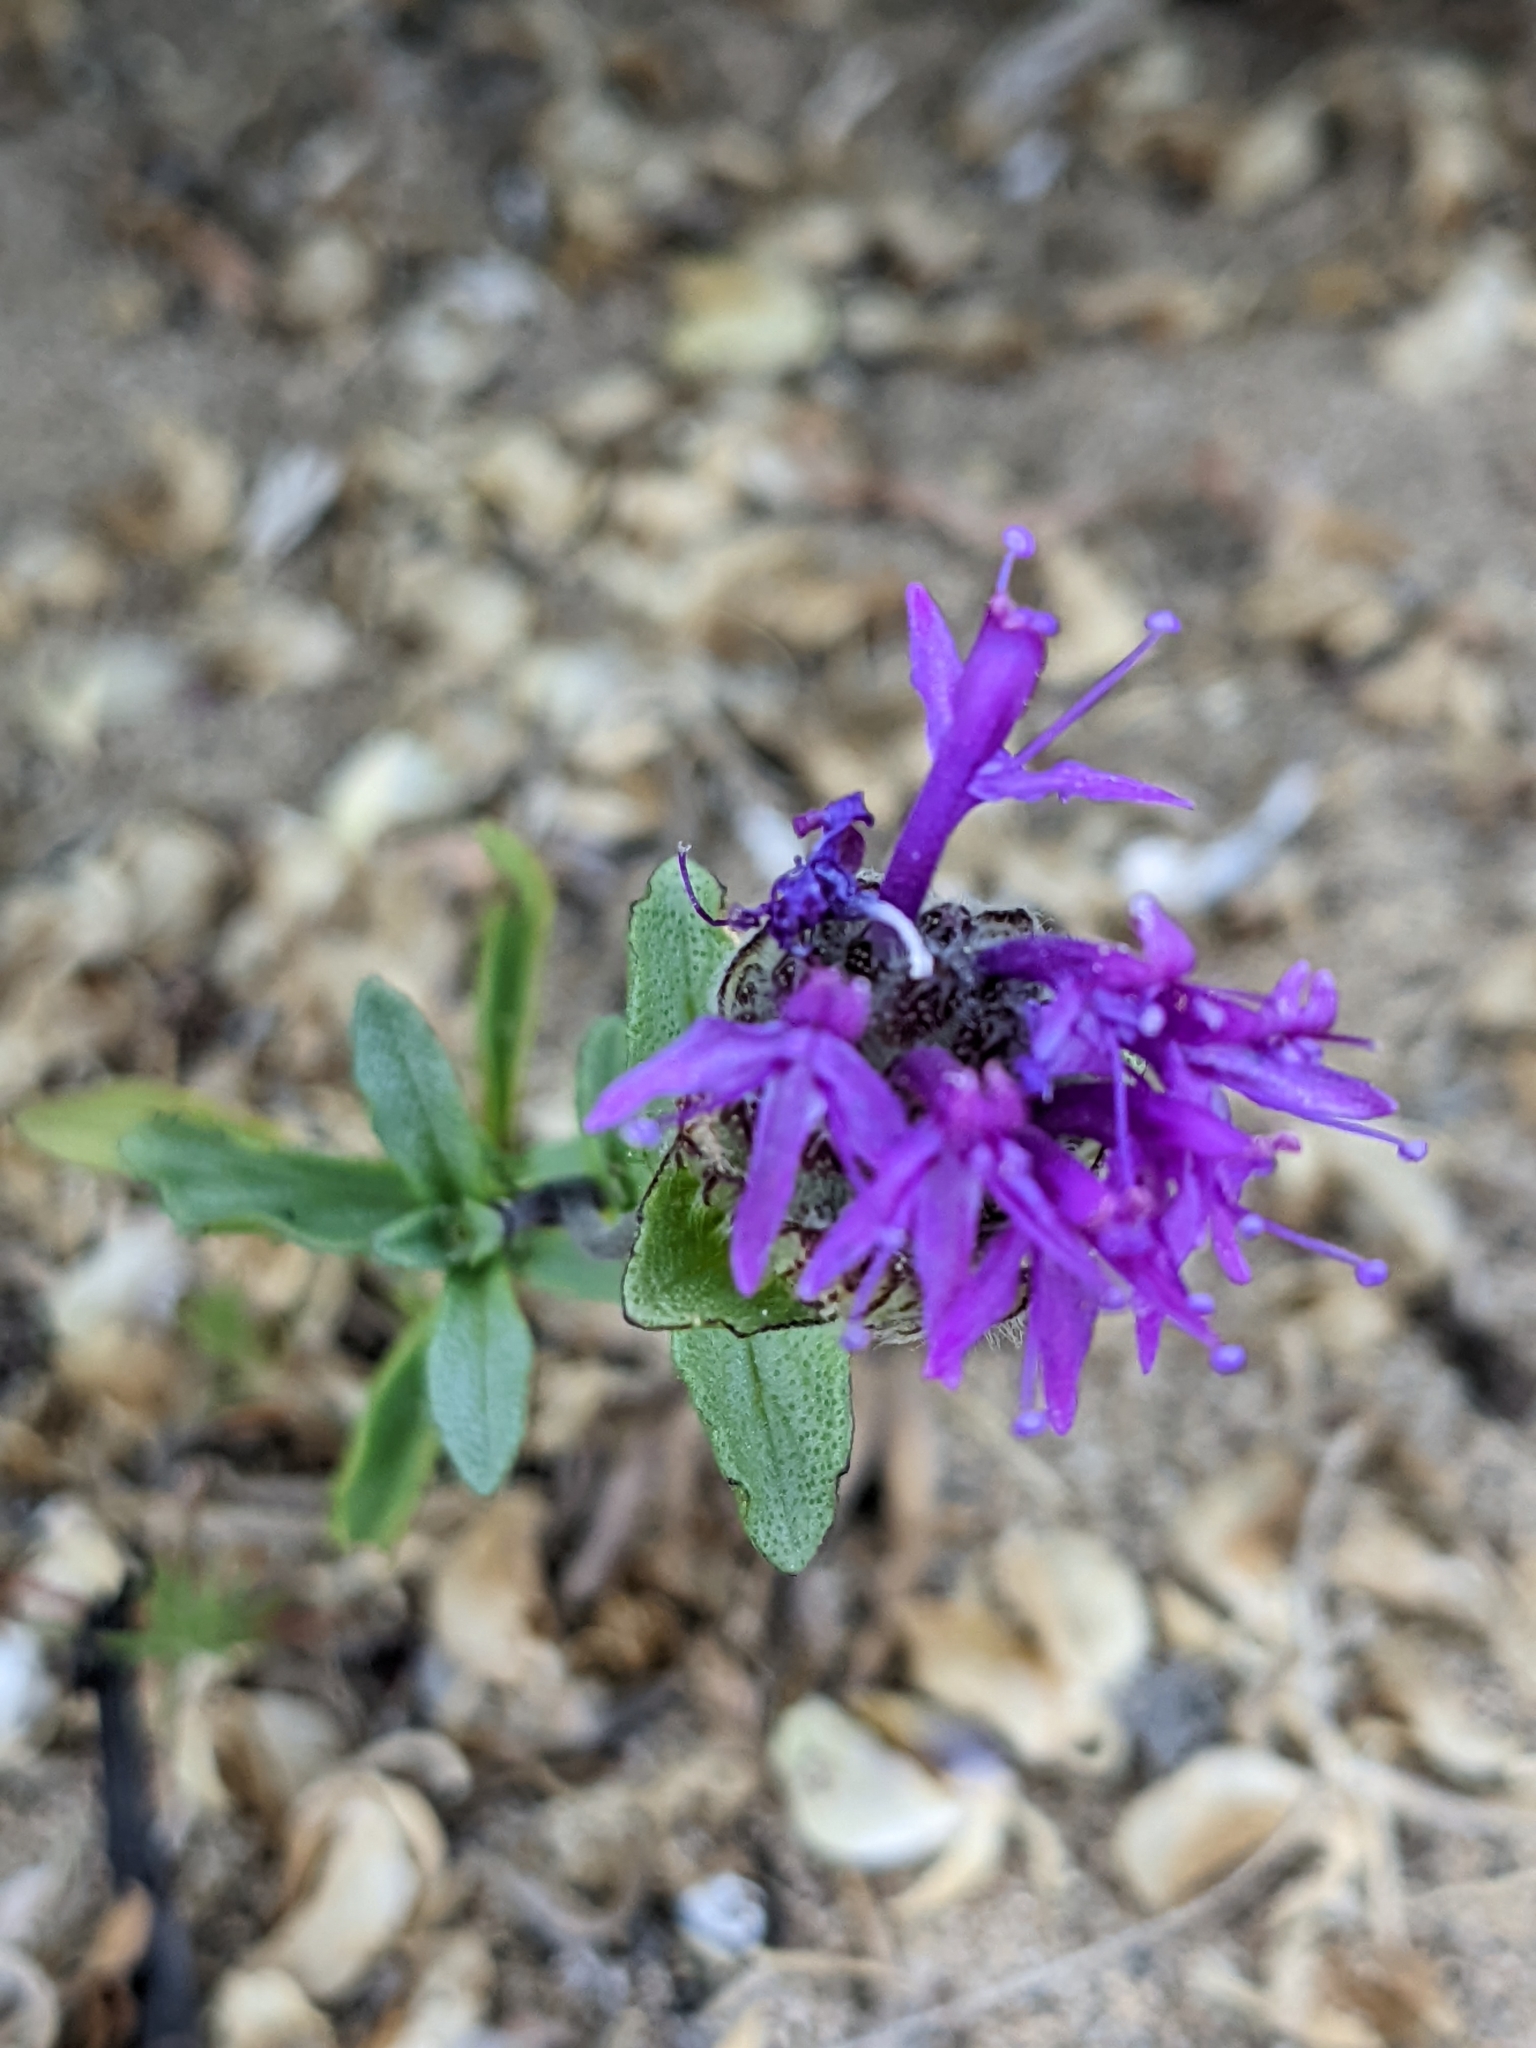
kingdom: Plantae
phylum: Tracheophyta
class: Magnoliopsida
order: Lamiales
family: Lamiaceae
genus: Monardella
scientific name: Monardella sinuata
